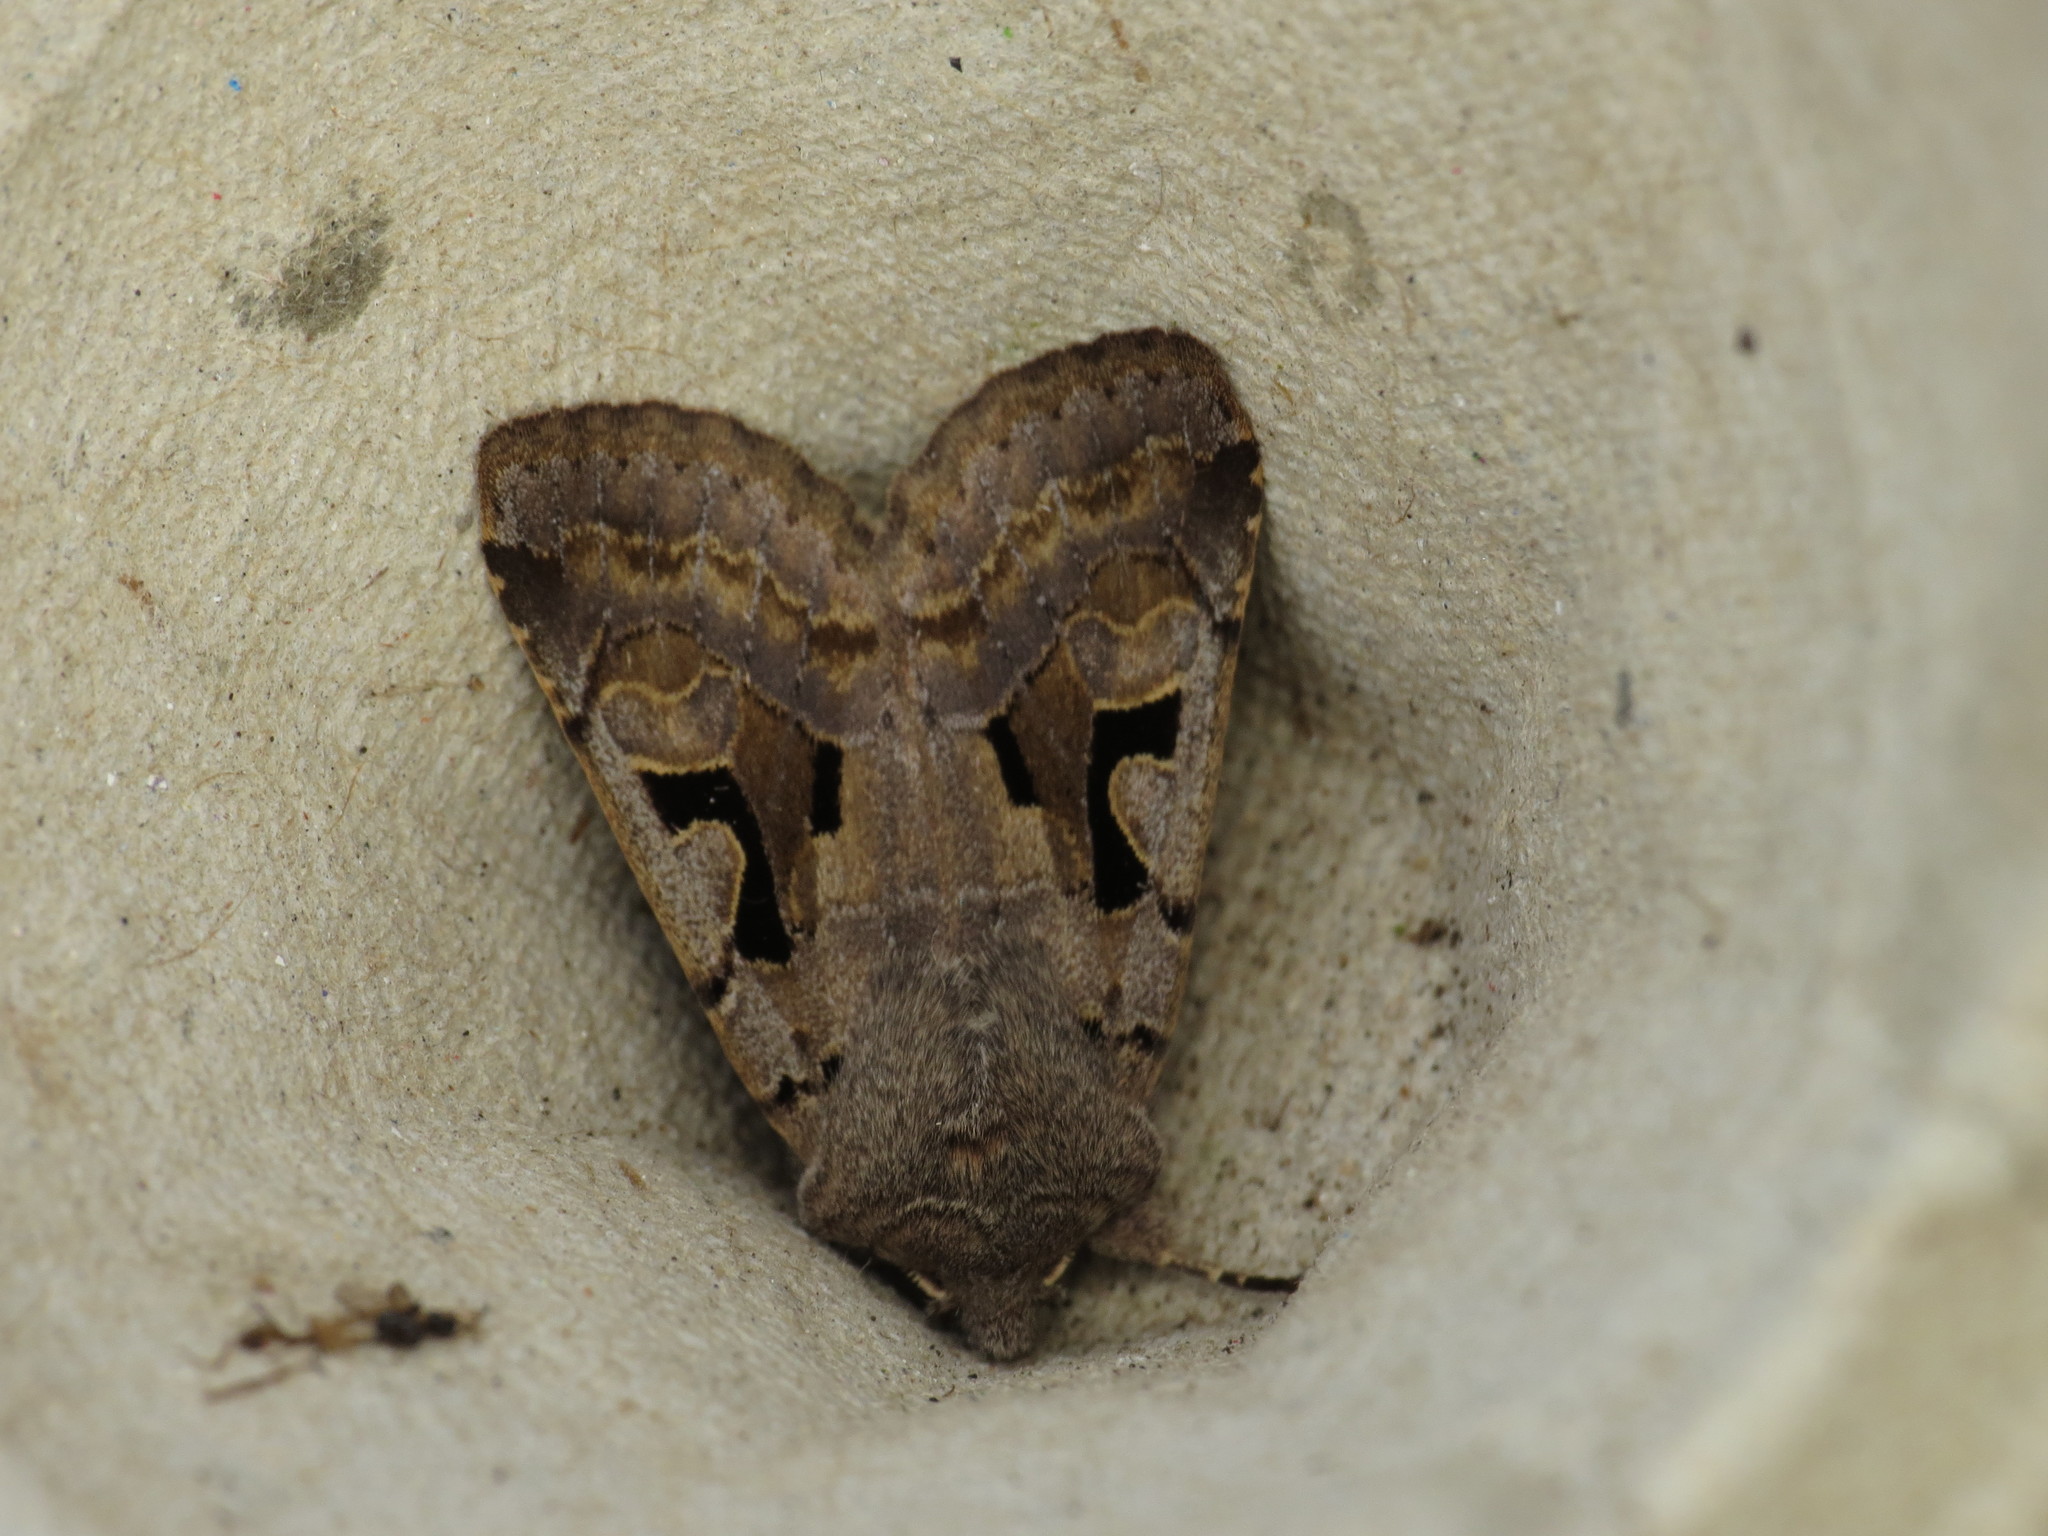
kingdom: Animalia
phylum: Arthropoda
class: Insecta
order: Lepidoptera
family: Noctuidae
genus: Orthosia
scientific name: Orthosia gothica
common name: Hebrew character
